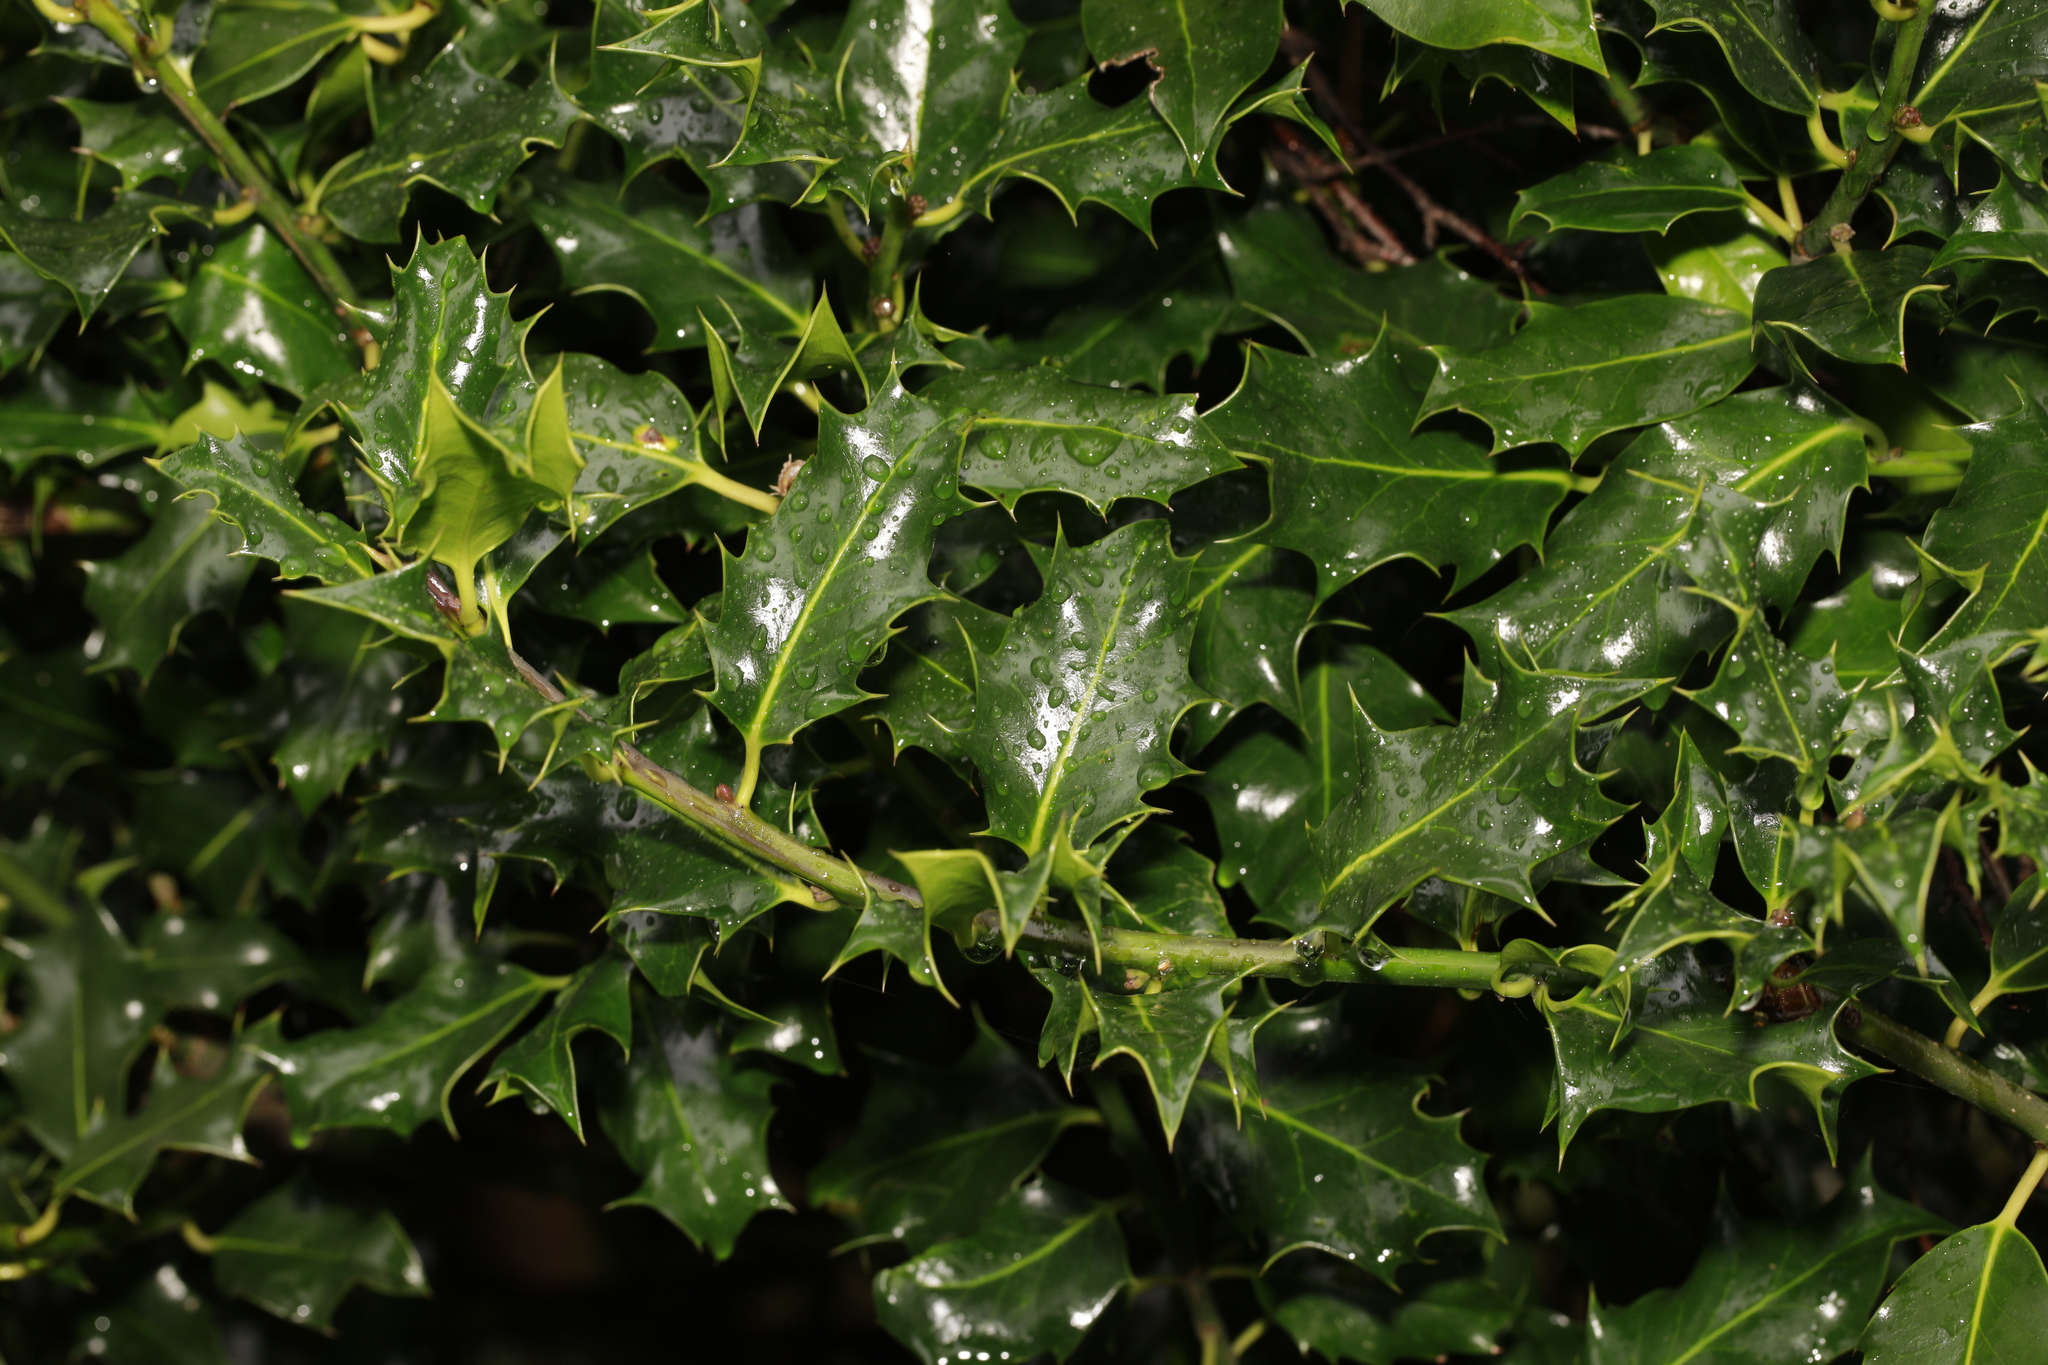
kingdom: Plantae
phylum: Tracheophyta
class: Magnoliopsida
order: Aquifoliales
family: Aquifoliaceae
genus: Ilex
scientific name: Ilex aquifolium
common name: English holly
